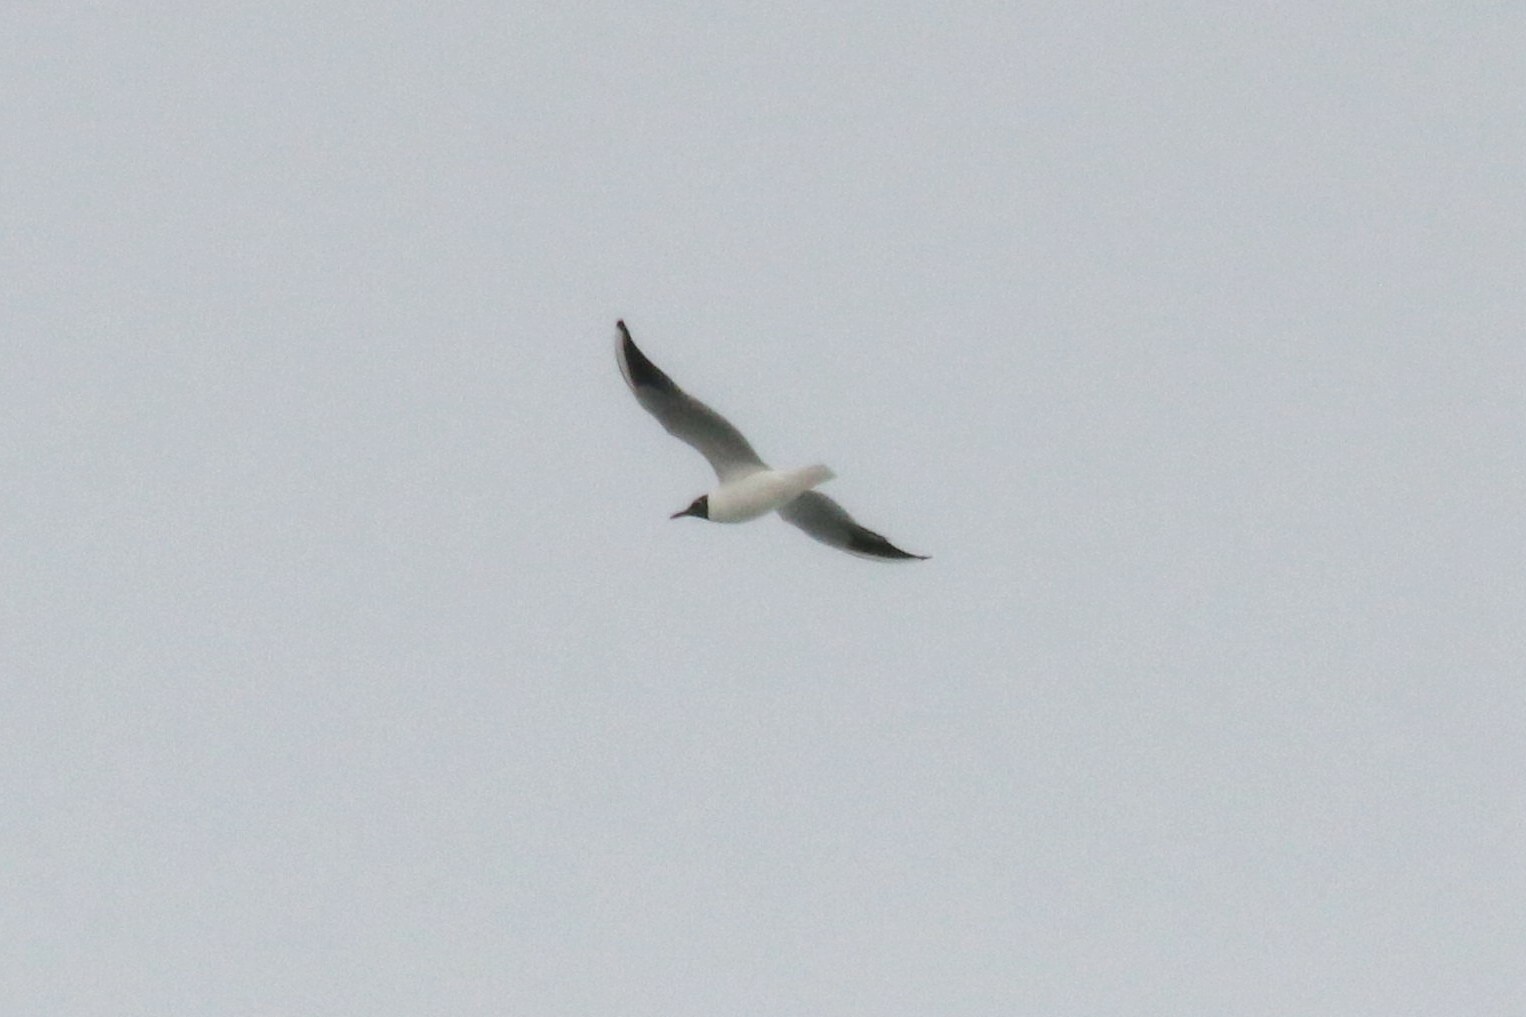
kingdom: Animalia
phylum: Chordata
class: Aves
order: Charadriiformes
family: Laridae
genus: Chroicocephalus
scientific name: Chroicocephalus ridibundus
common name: Black-headed gull
